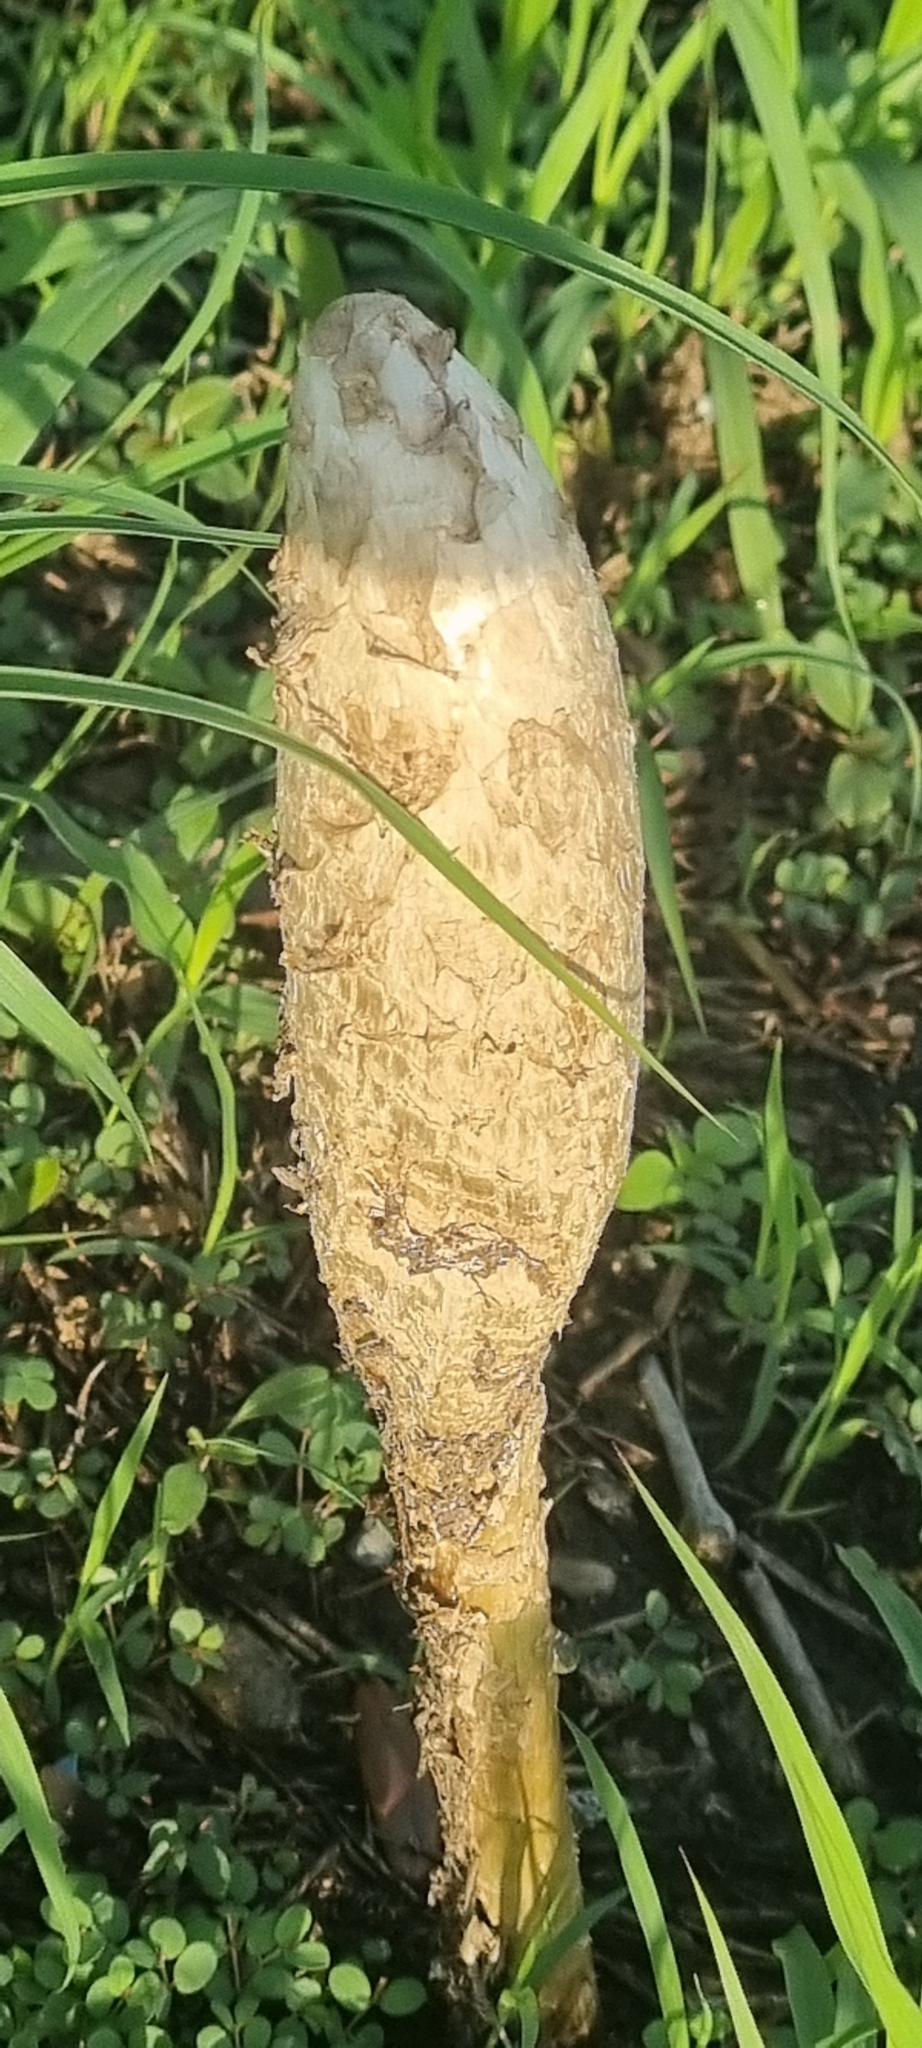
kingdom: Fungi
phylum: Basidiomycota
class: Agaricomycetes
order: Agaricales
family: Agaricaceae
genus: Podaxis
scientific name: Podaxis pistillaris
